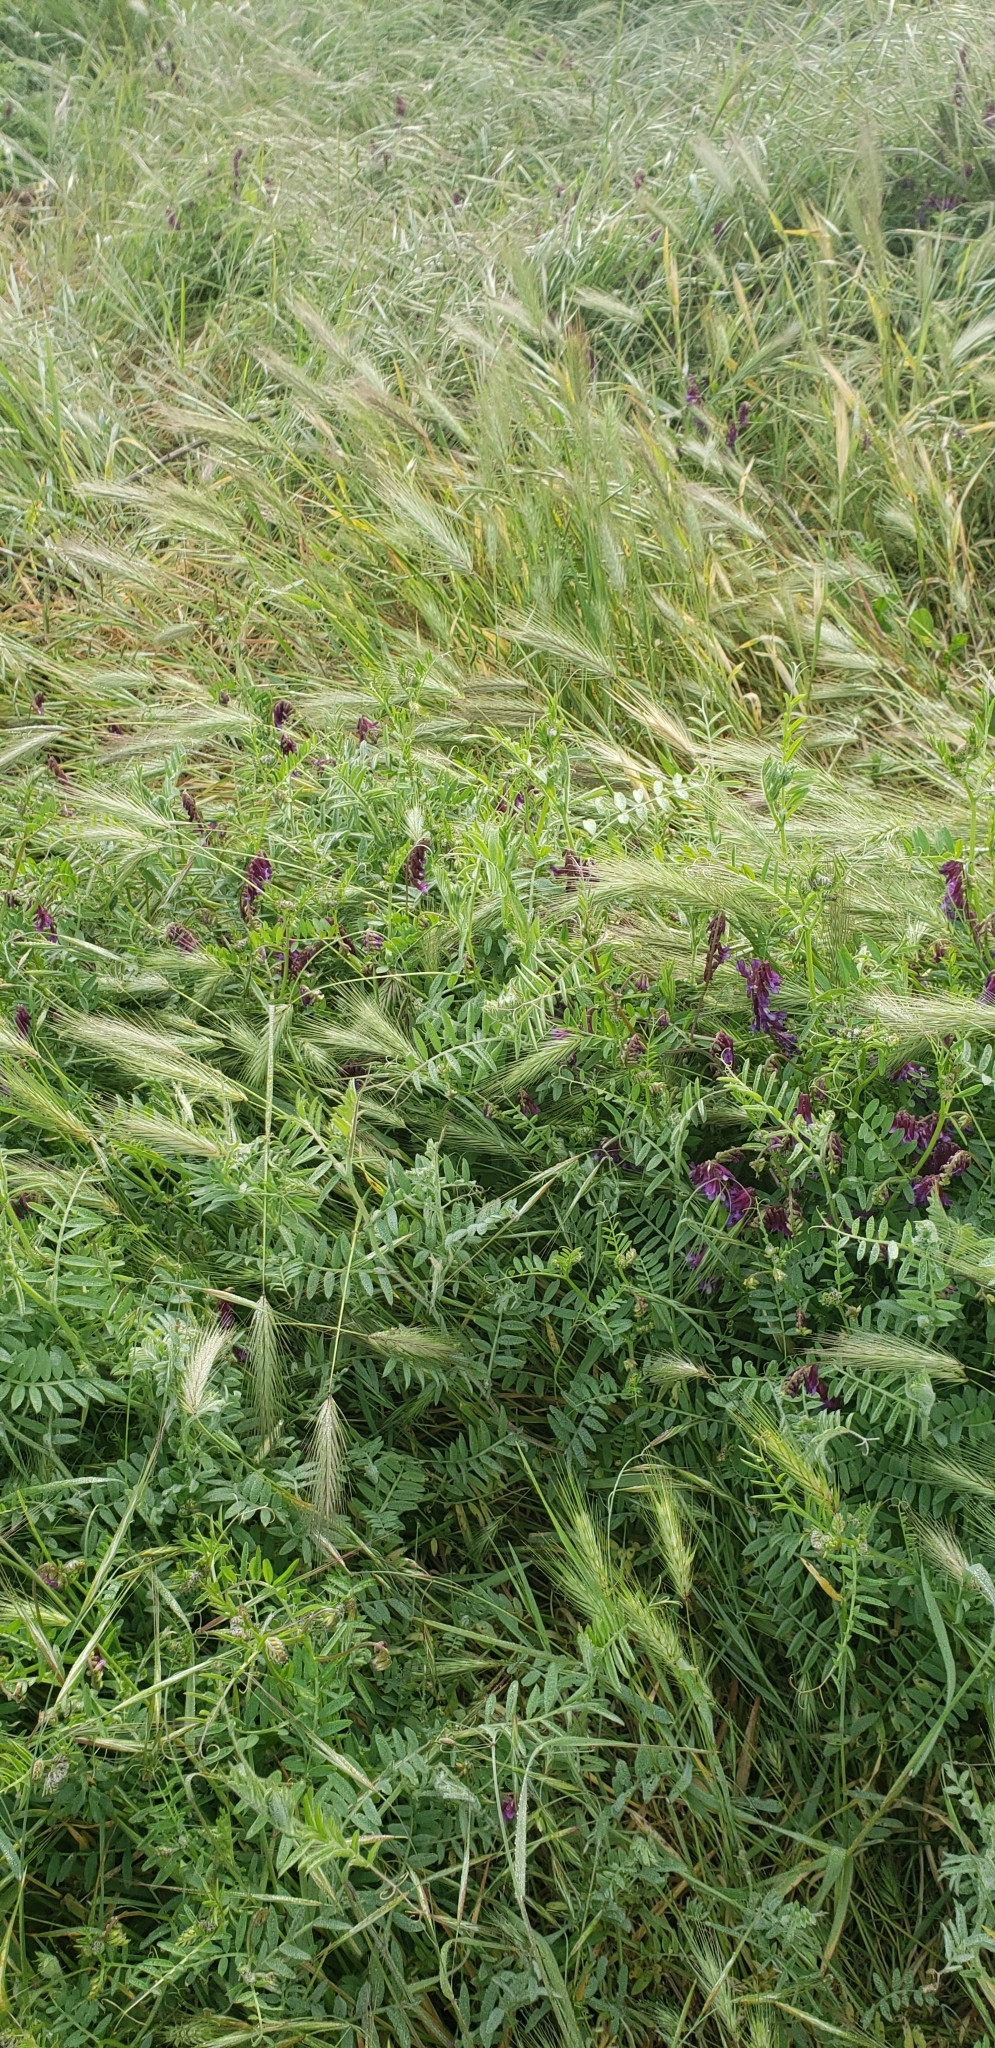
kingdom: Plantae
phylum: Tracheophyta
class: Magnoliopsida
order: Fabales
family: Fabaceae
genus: Vicia
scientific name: Vicia villosa
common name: Fodder vetch
